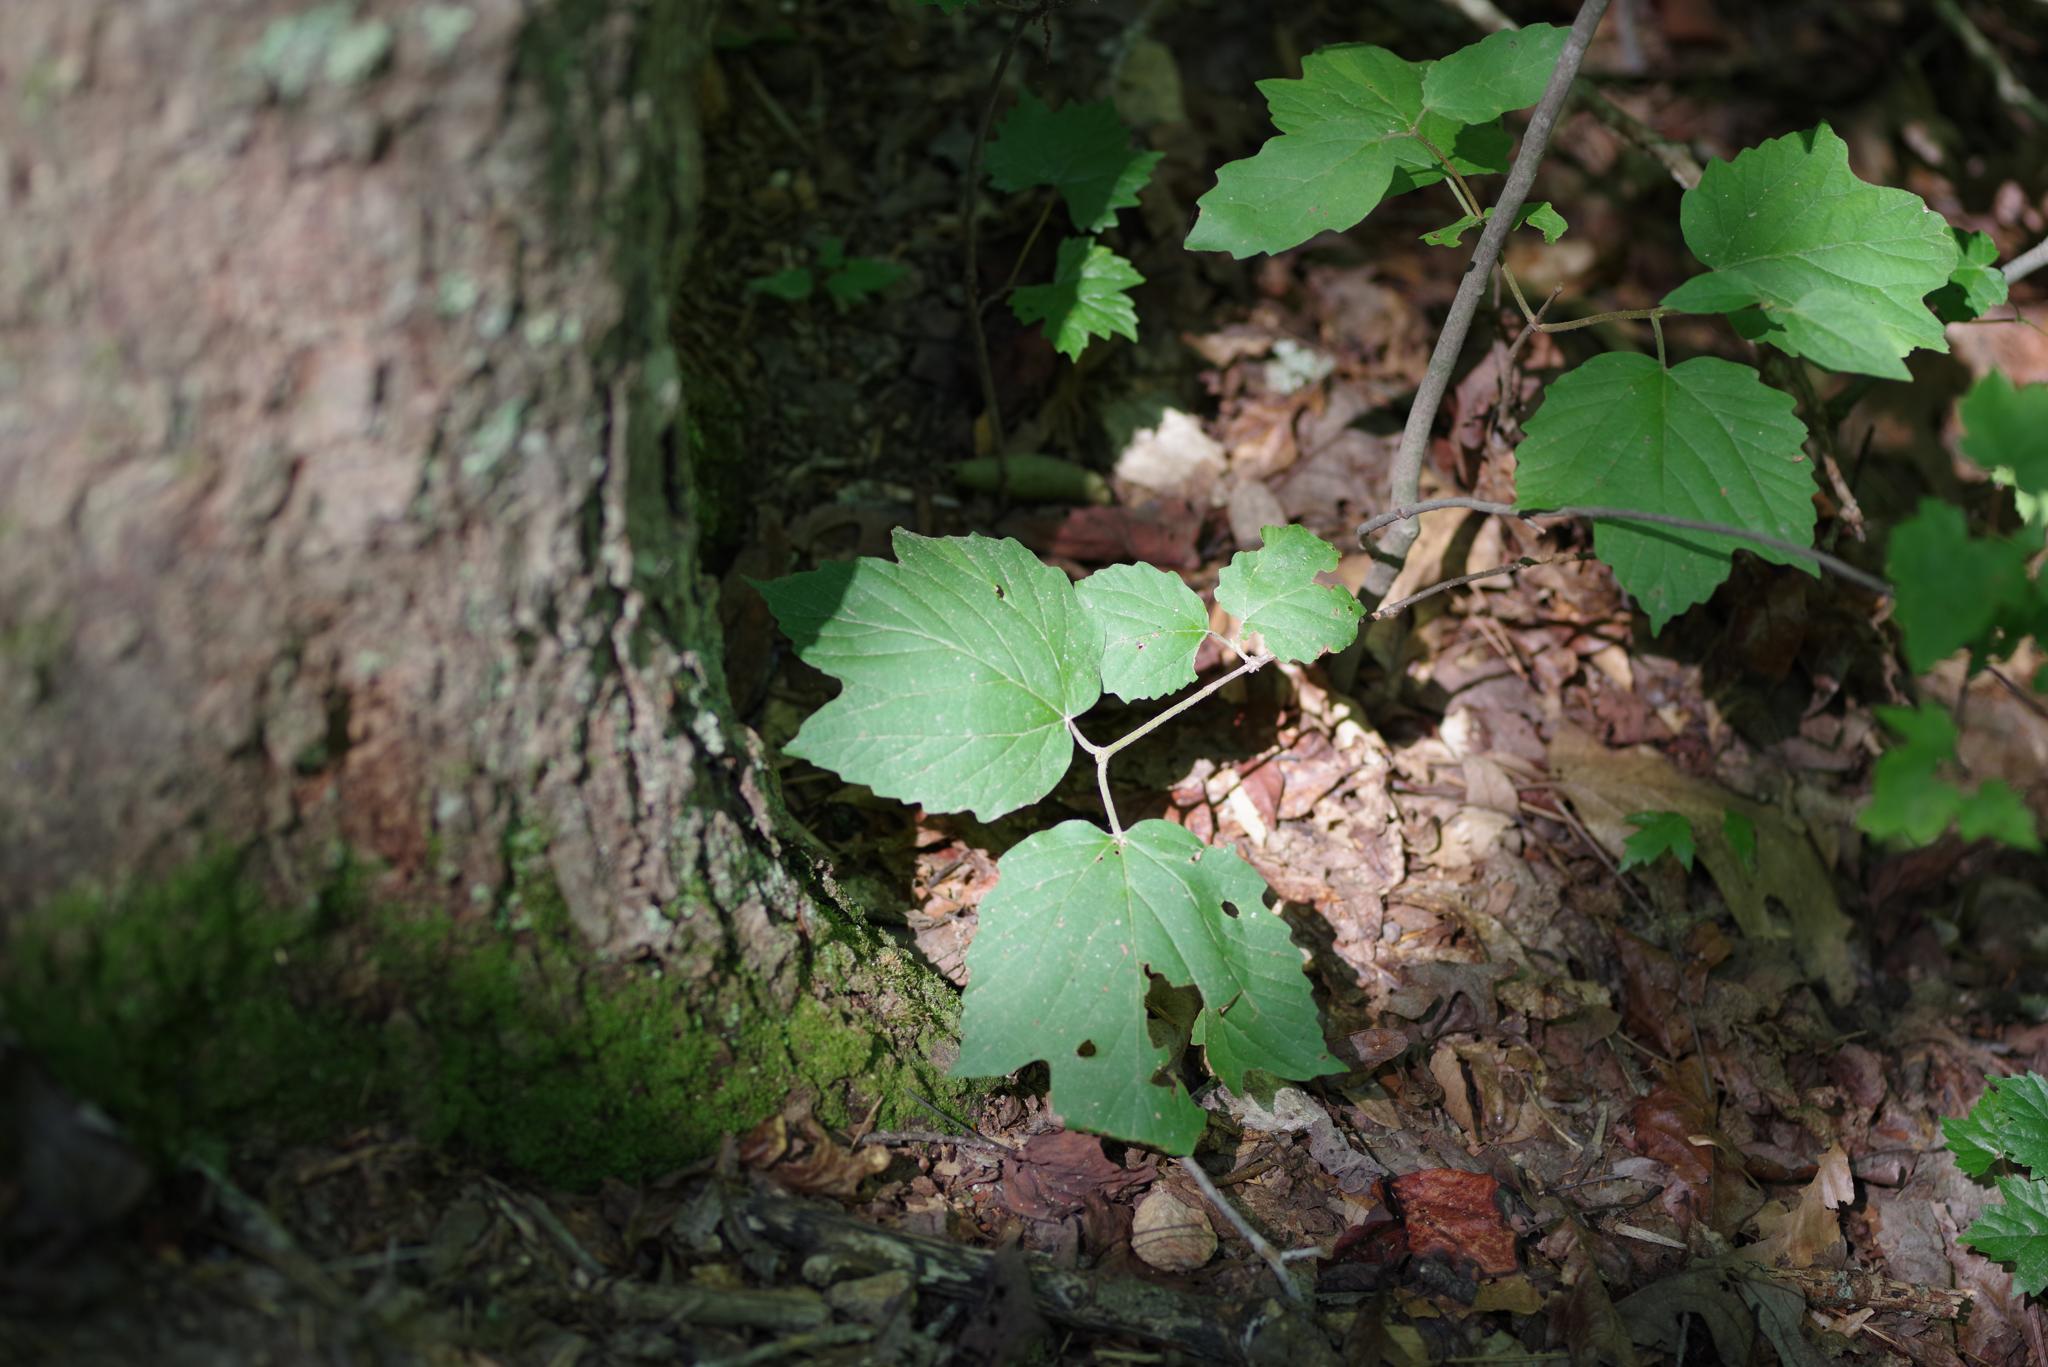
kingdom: Plantae
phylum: Tracheophyta
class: Magnoliopsida
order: Dipsacales
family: Viburnaceae
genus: Viburnum
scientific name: Viburnum acerifolium
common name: Dockmackie
